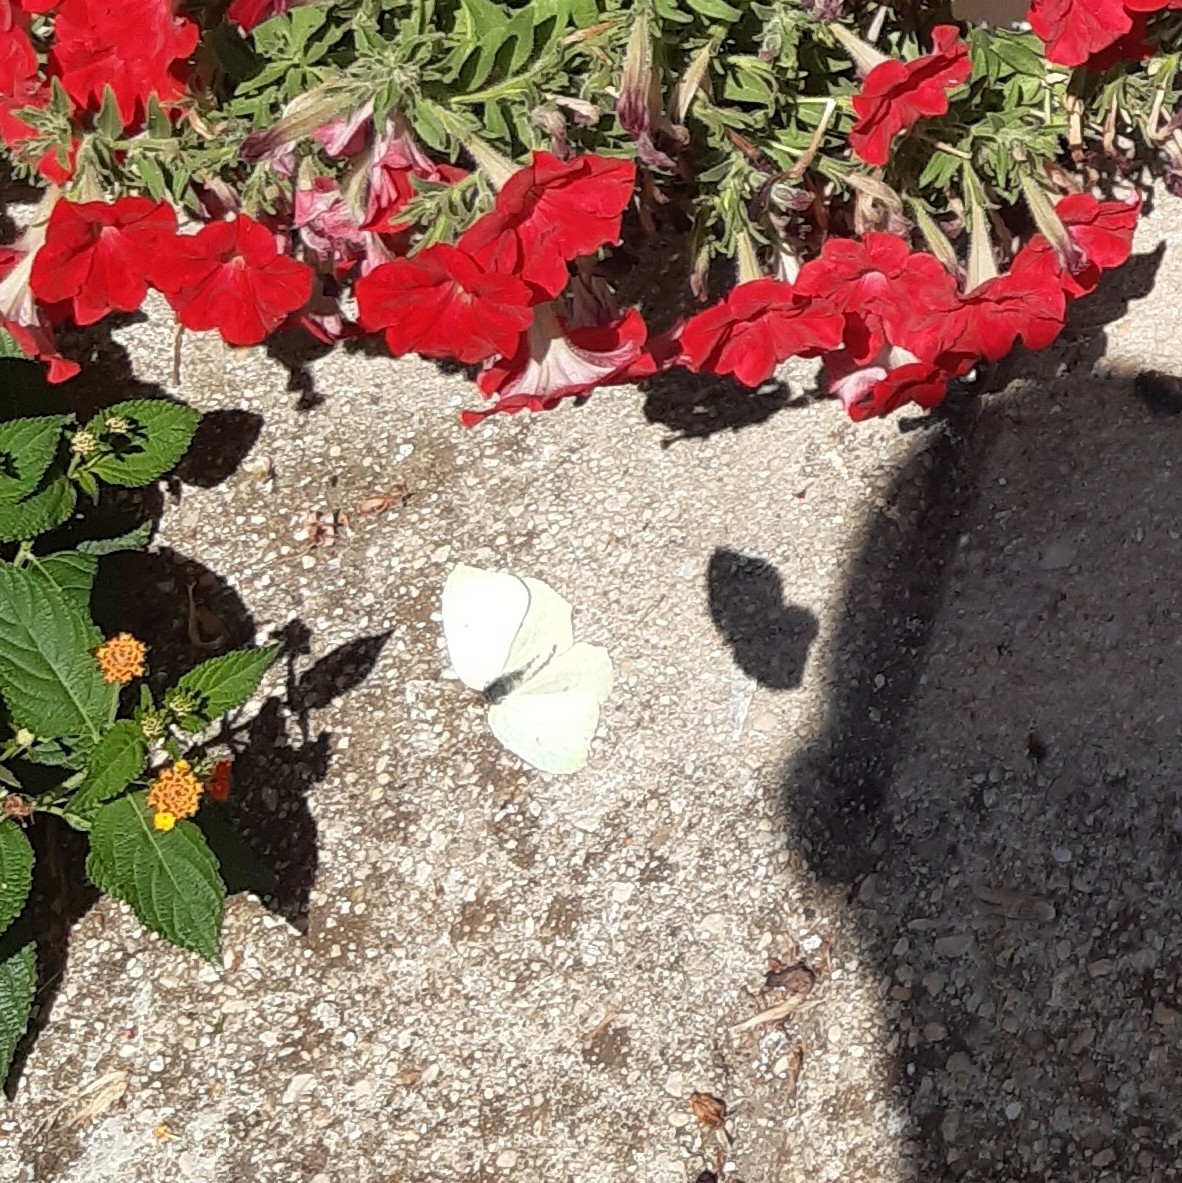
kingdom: Animalia
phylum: Arthropoda
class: Insecta
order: Lepidoptera
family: Pieridae
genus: Gonepteryx
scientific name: Gonepteryx cleopatra
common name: Cleopatra
